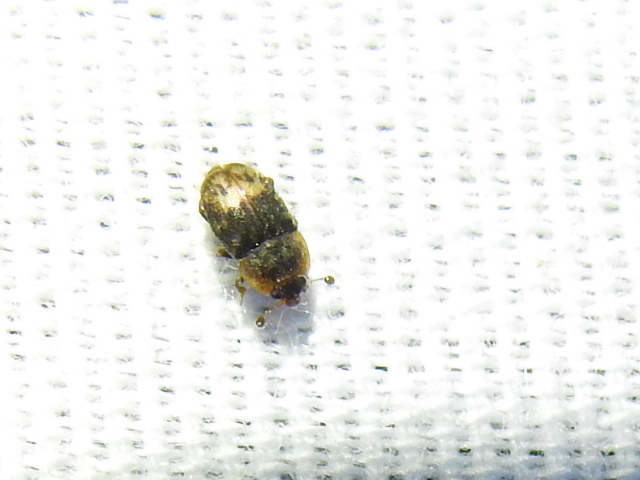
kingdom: Animalia
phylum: Arthropoda
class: Insecta
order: Coleoptera
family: Nitidulidae
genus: Omosita
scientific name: Omosita nearctica
